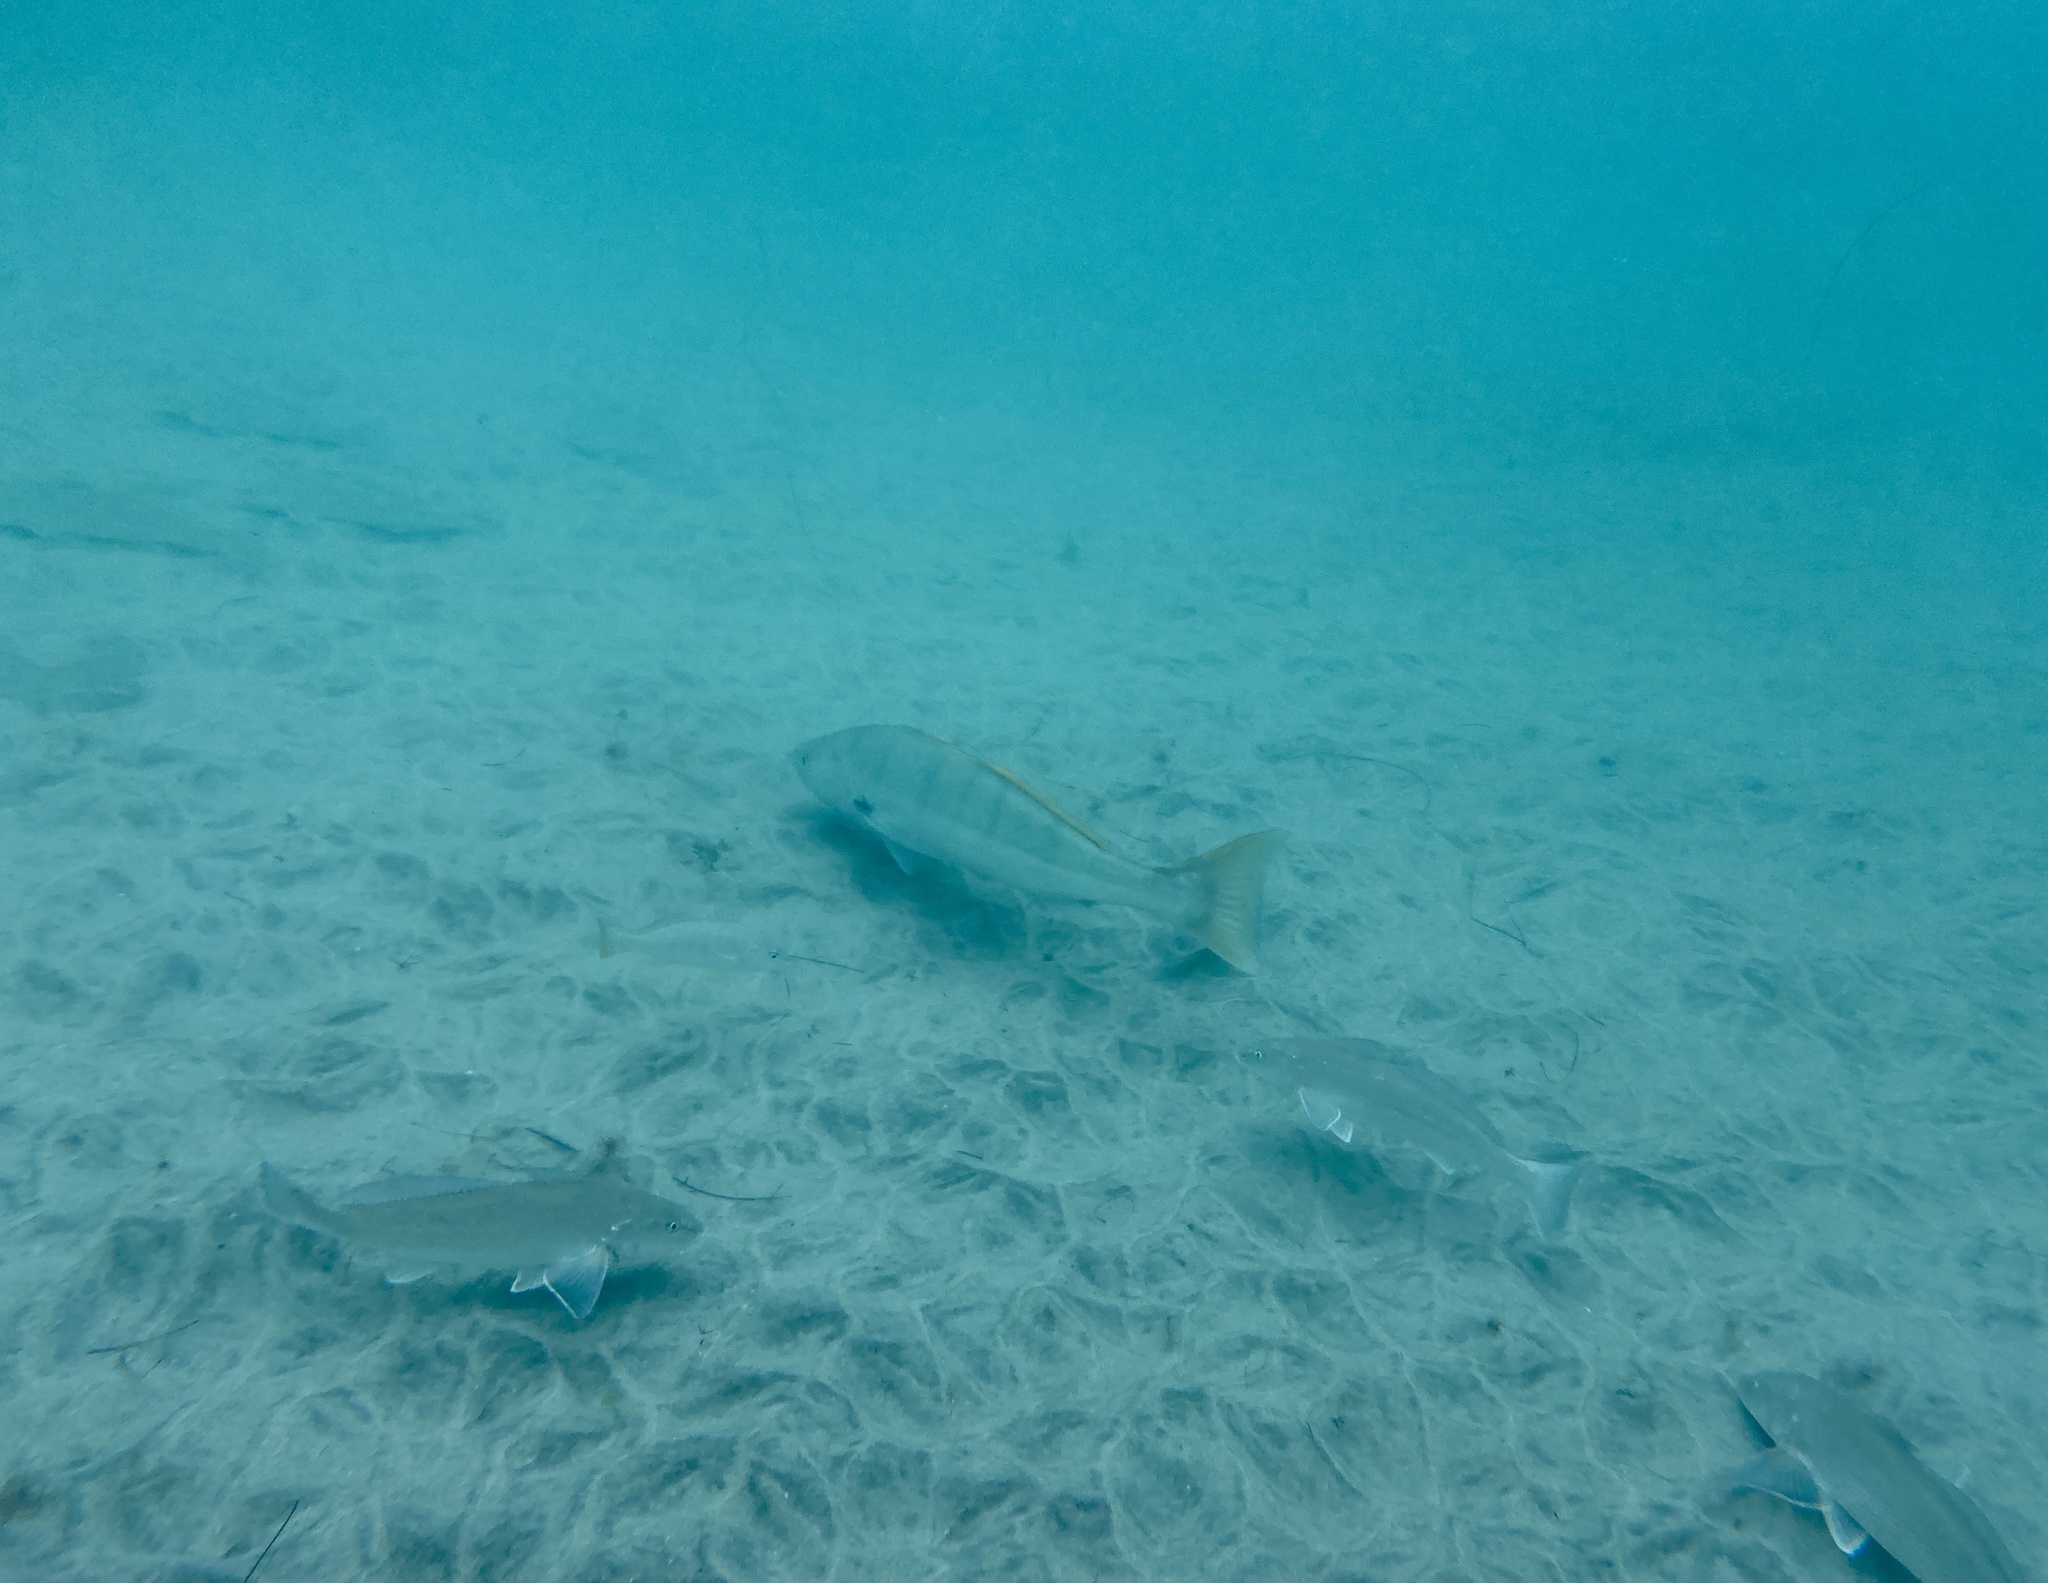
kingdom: Animalia
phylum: Chordata
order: Perciformes
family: Sciaenidae
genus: Atractoscion
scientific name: Atractoscion nobilis
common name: White seabass
